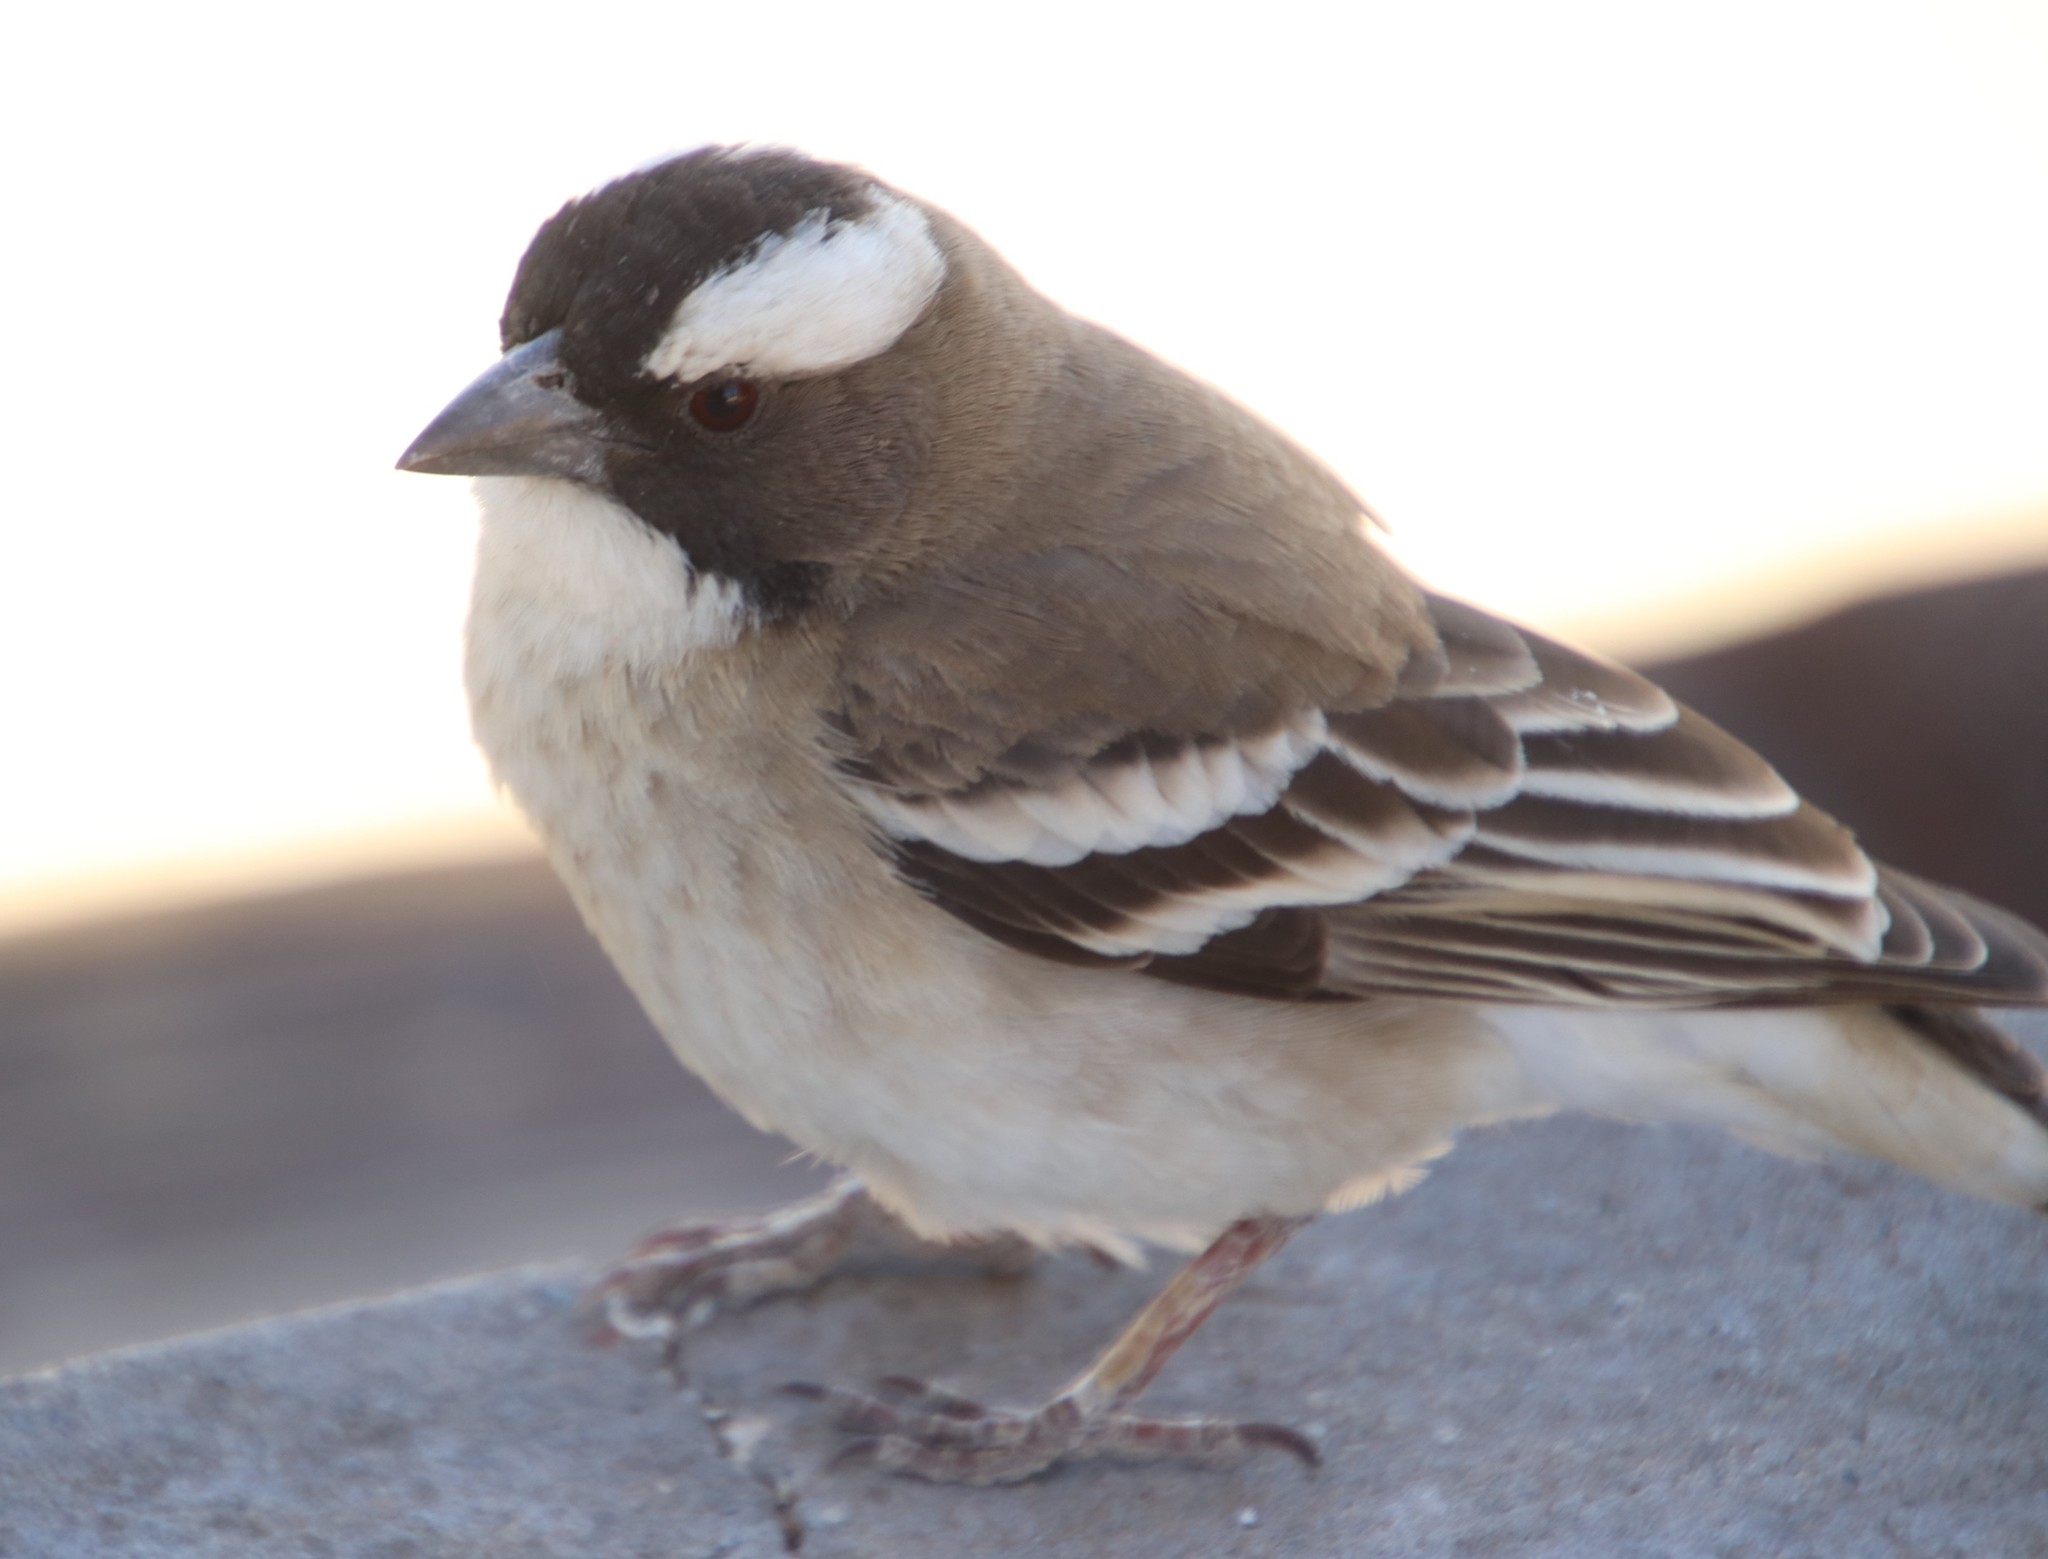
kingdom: Animalia
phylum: Chordata
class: Aves
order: Passeriformes
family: Passeridae
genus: Plocepasser
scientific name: Plocepasser mahali
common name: White-browed sparrow-weaver
